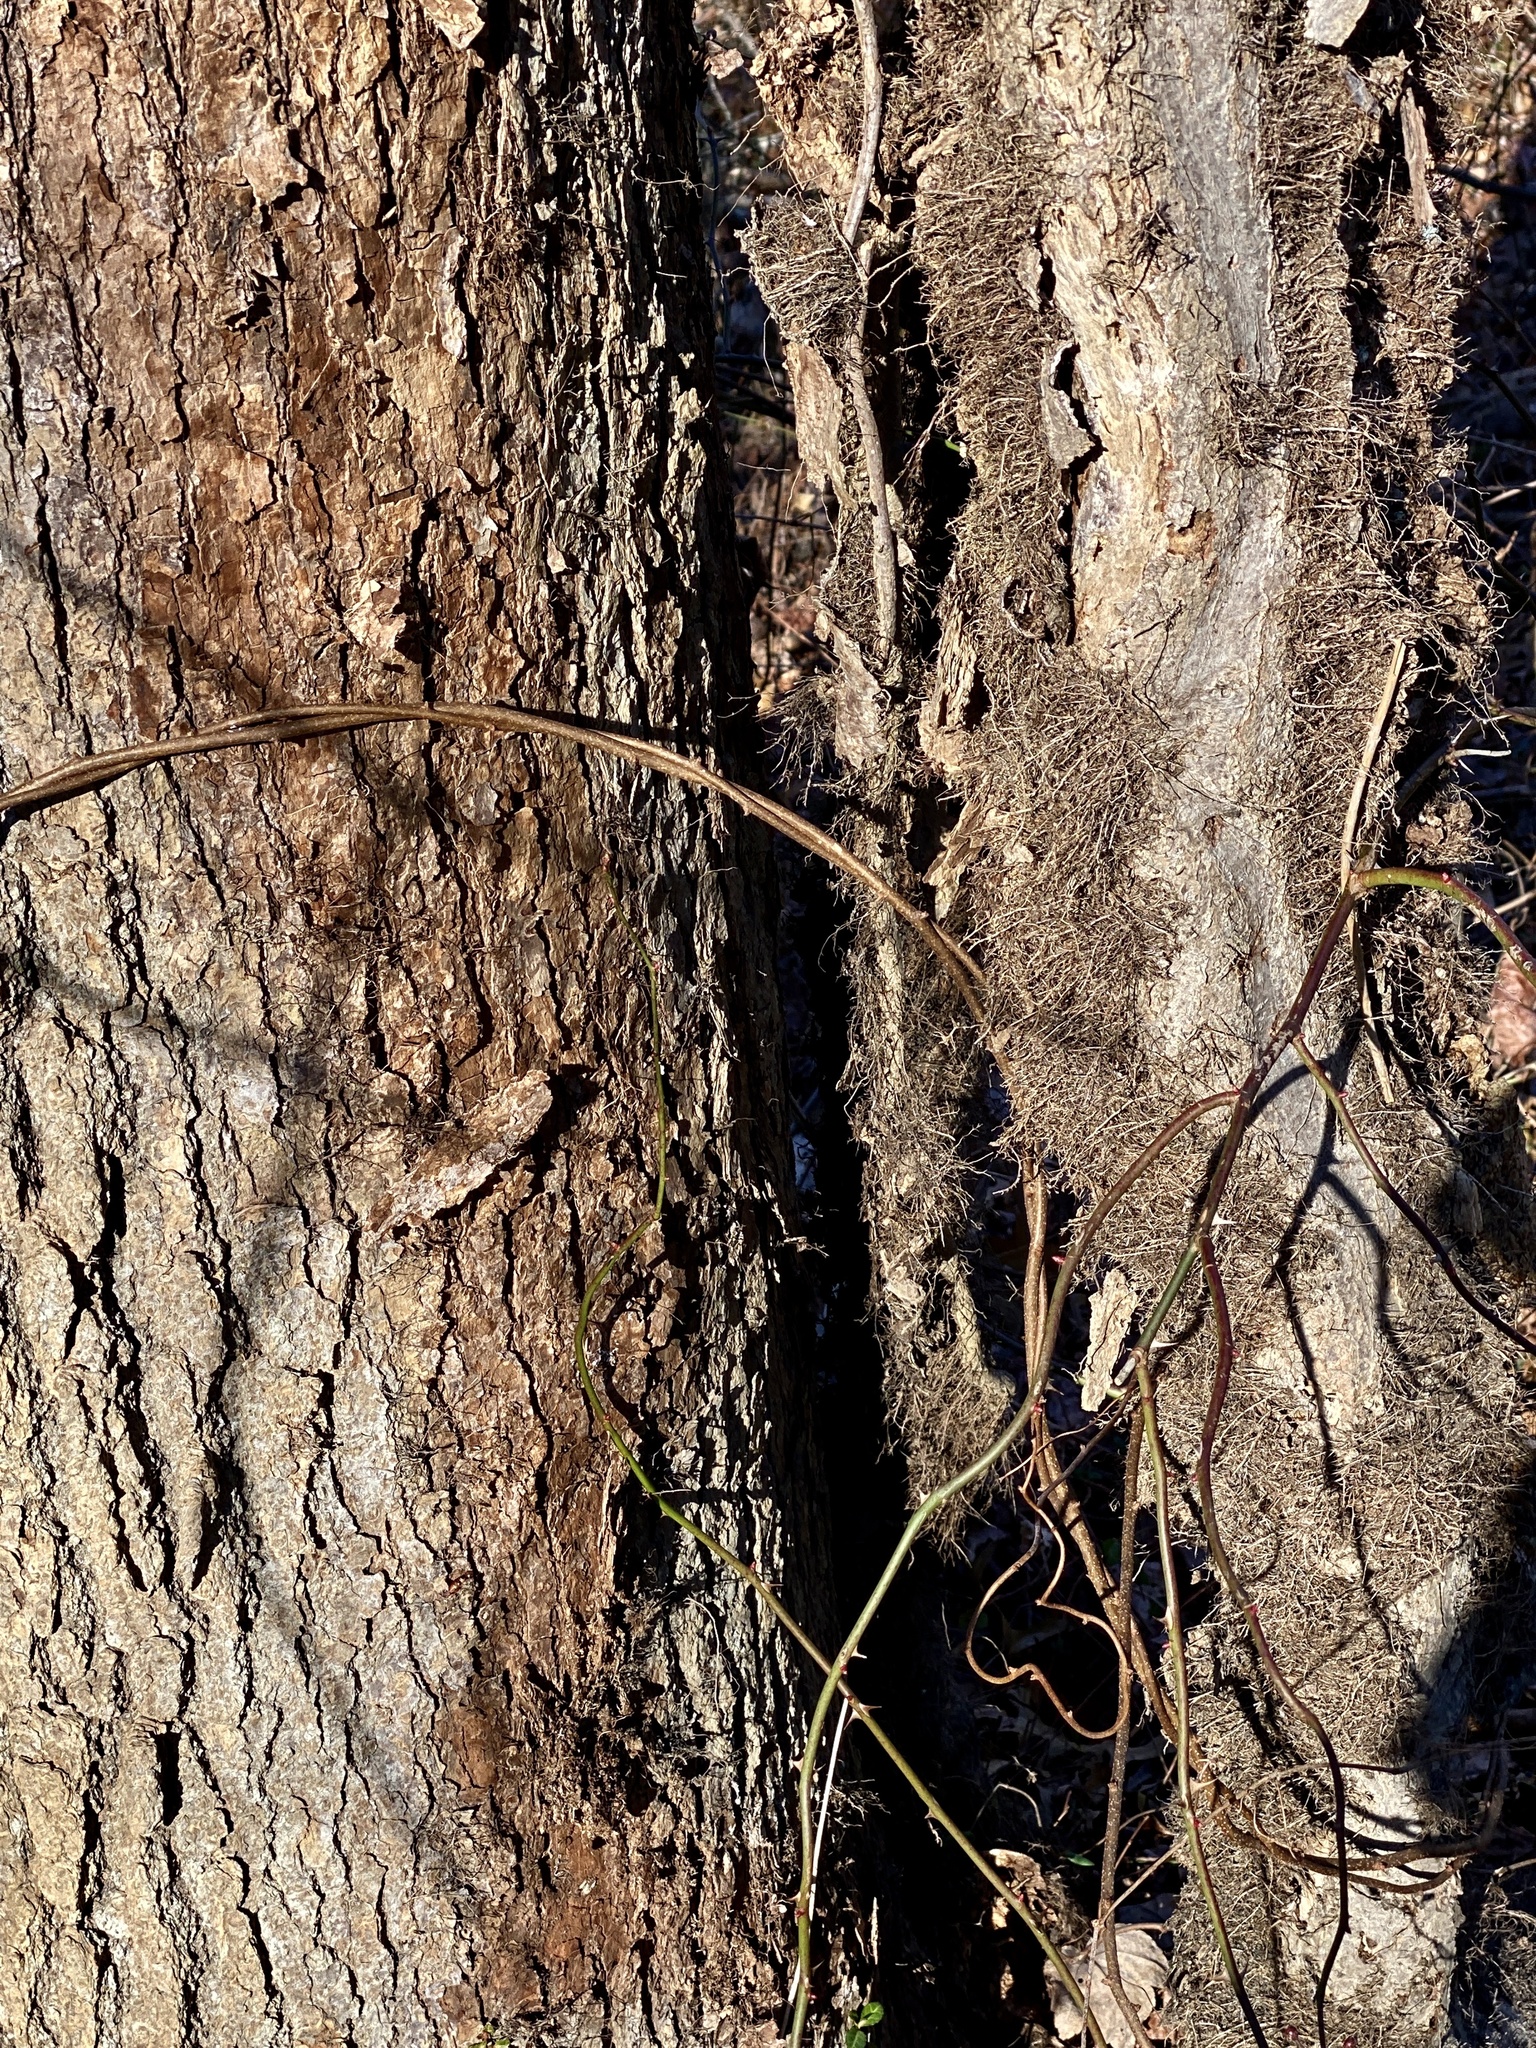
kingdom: Plantae
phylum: Tracheophyta
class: Magnoliopsida
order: Sapindales
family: Anacardiaceae
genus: Toxicodendron
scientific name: Toxicodendron radicans
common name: Poison ivy
